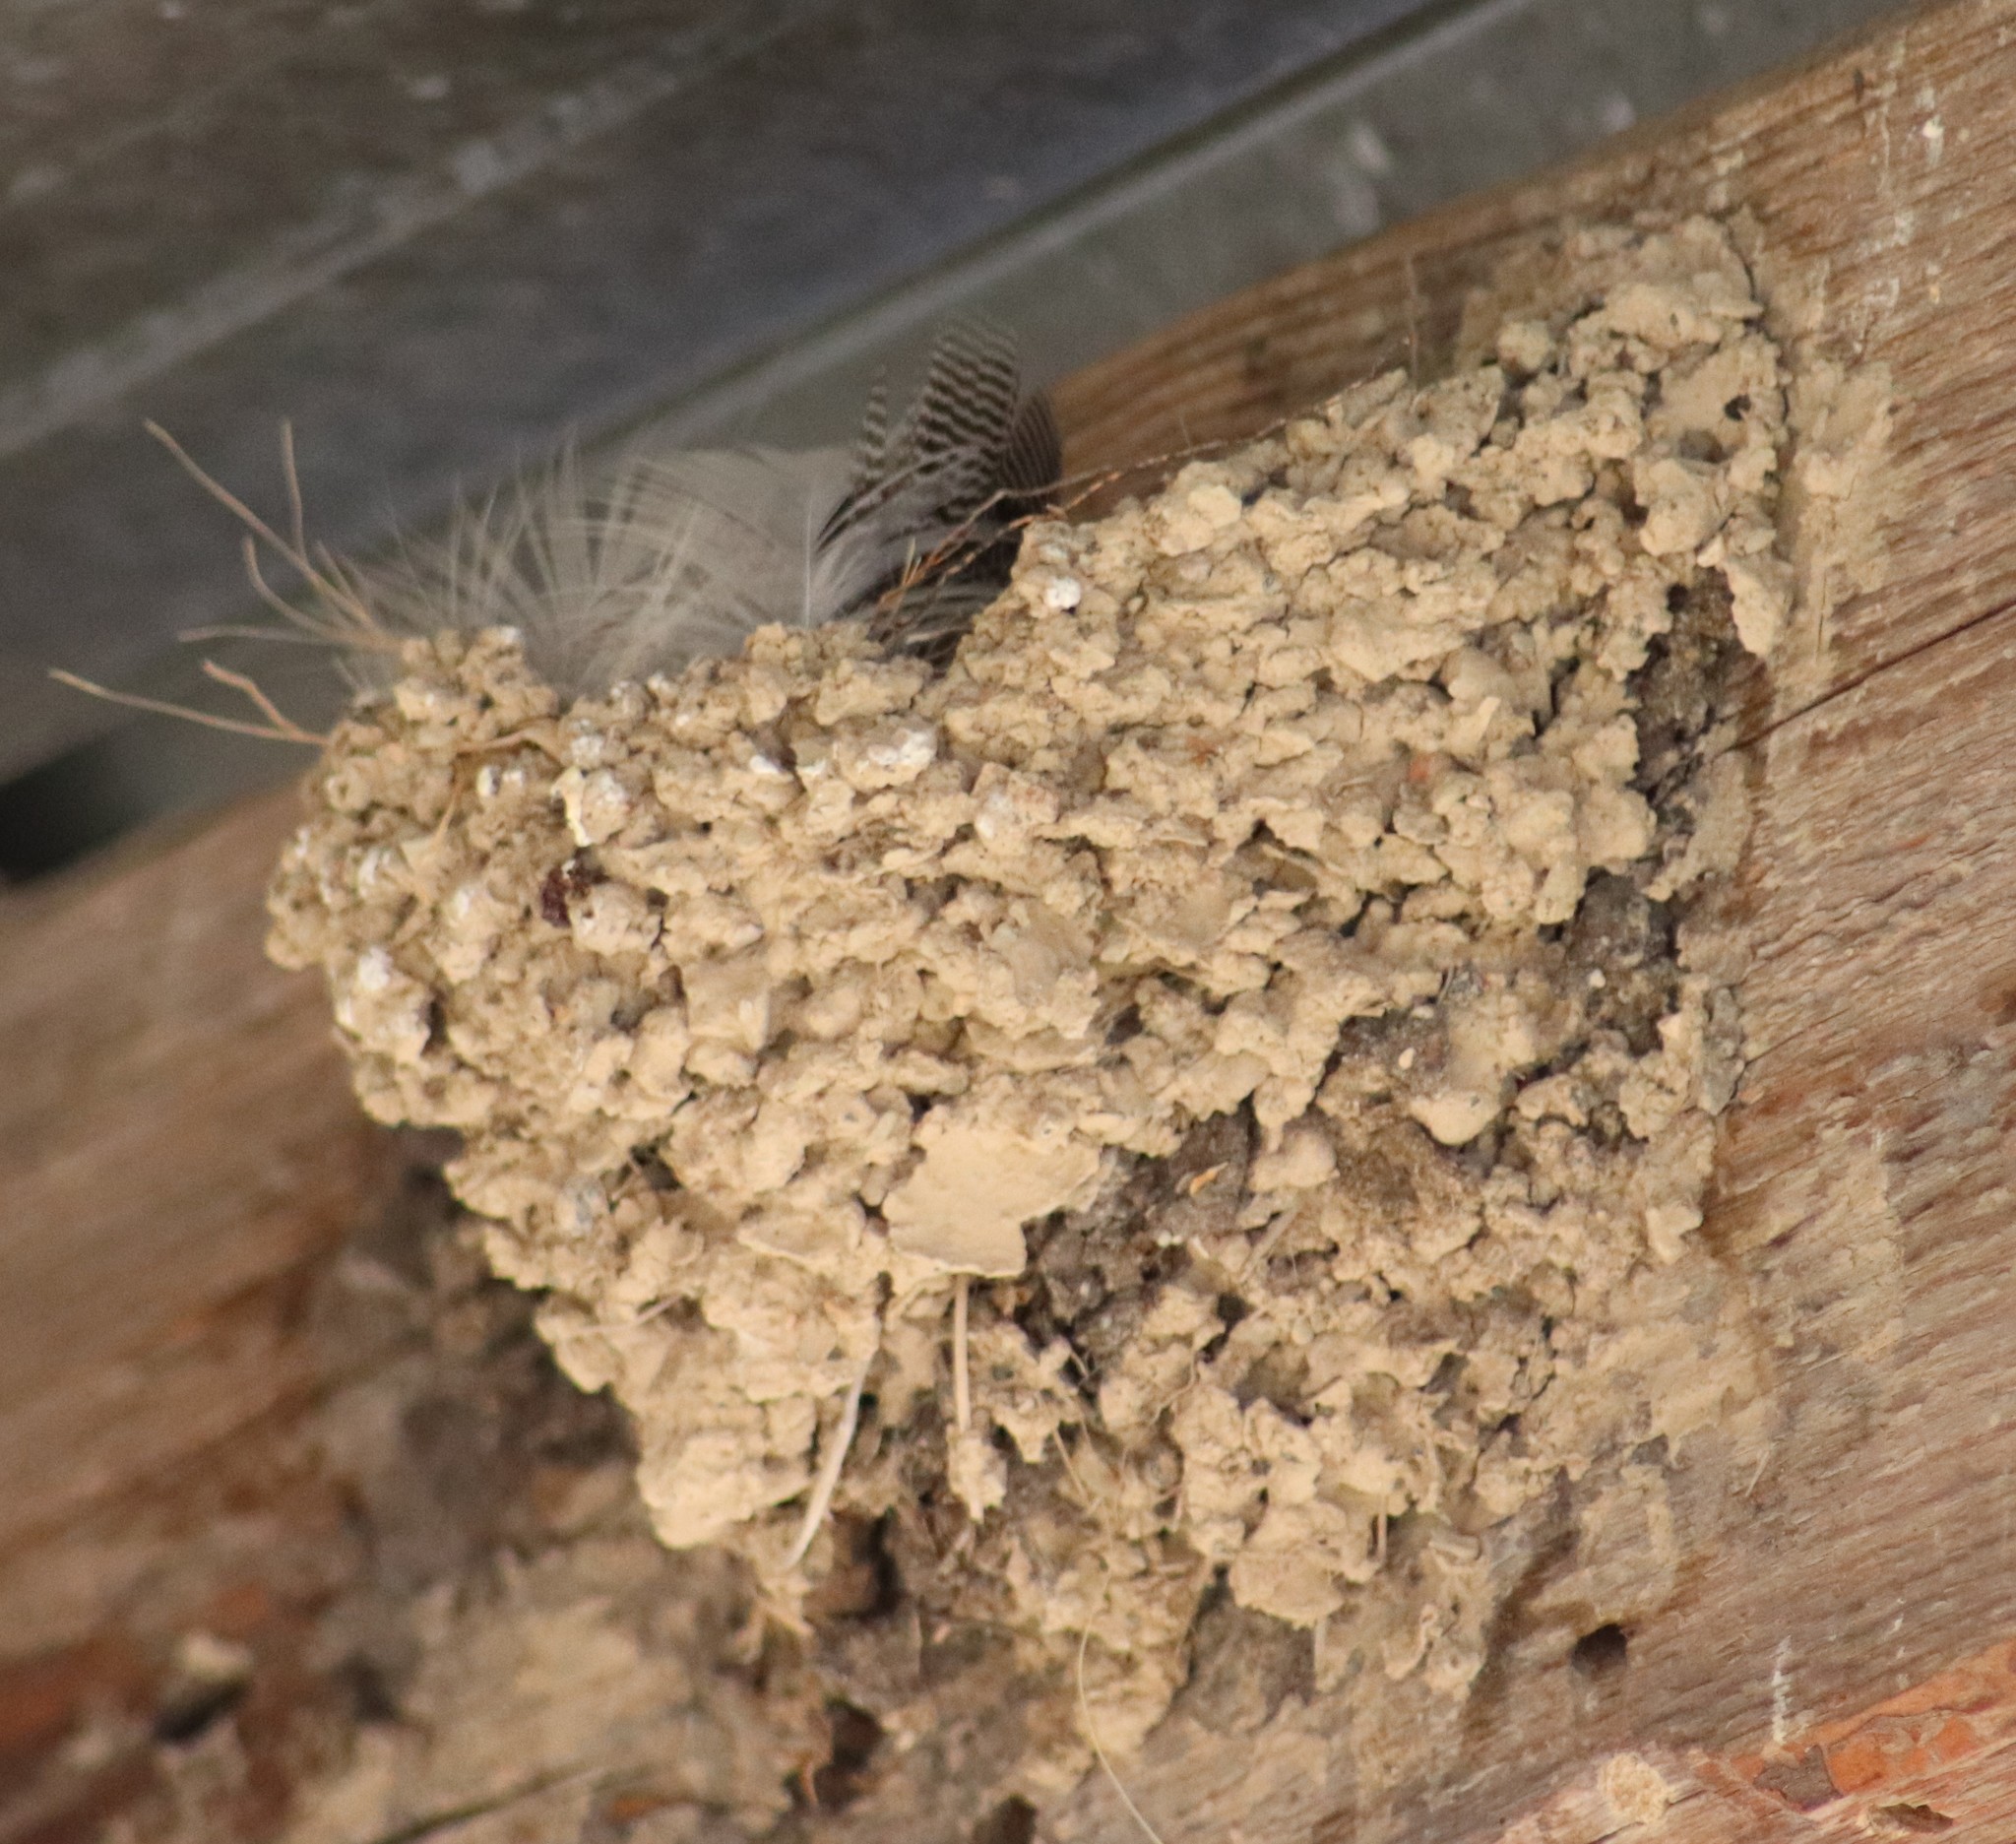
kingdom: Animalia
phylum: Chordata
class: Aves
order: Passeriformes
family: Hirundinidae
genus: Hirundo
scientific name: Hirundo rustica
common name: Barn swallow
